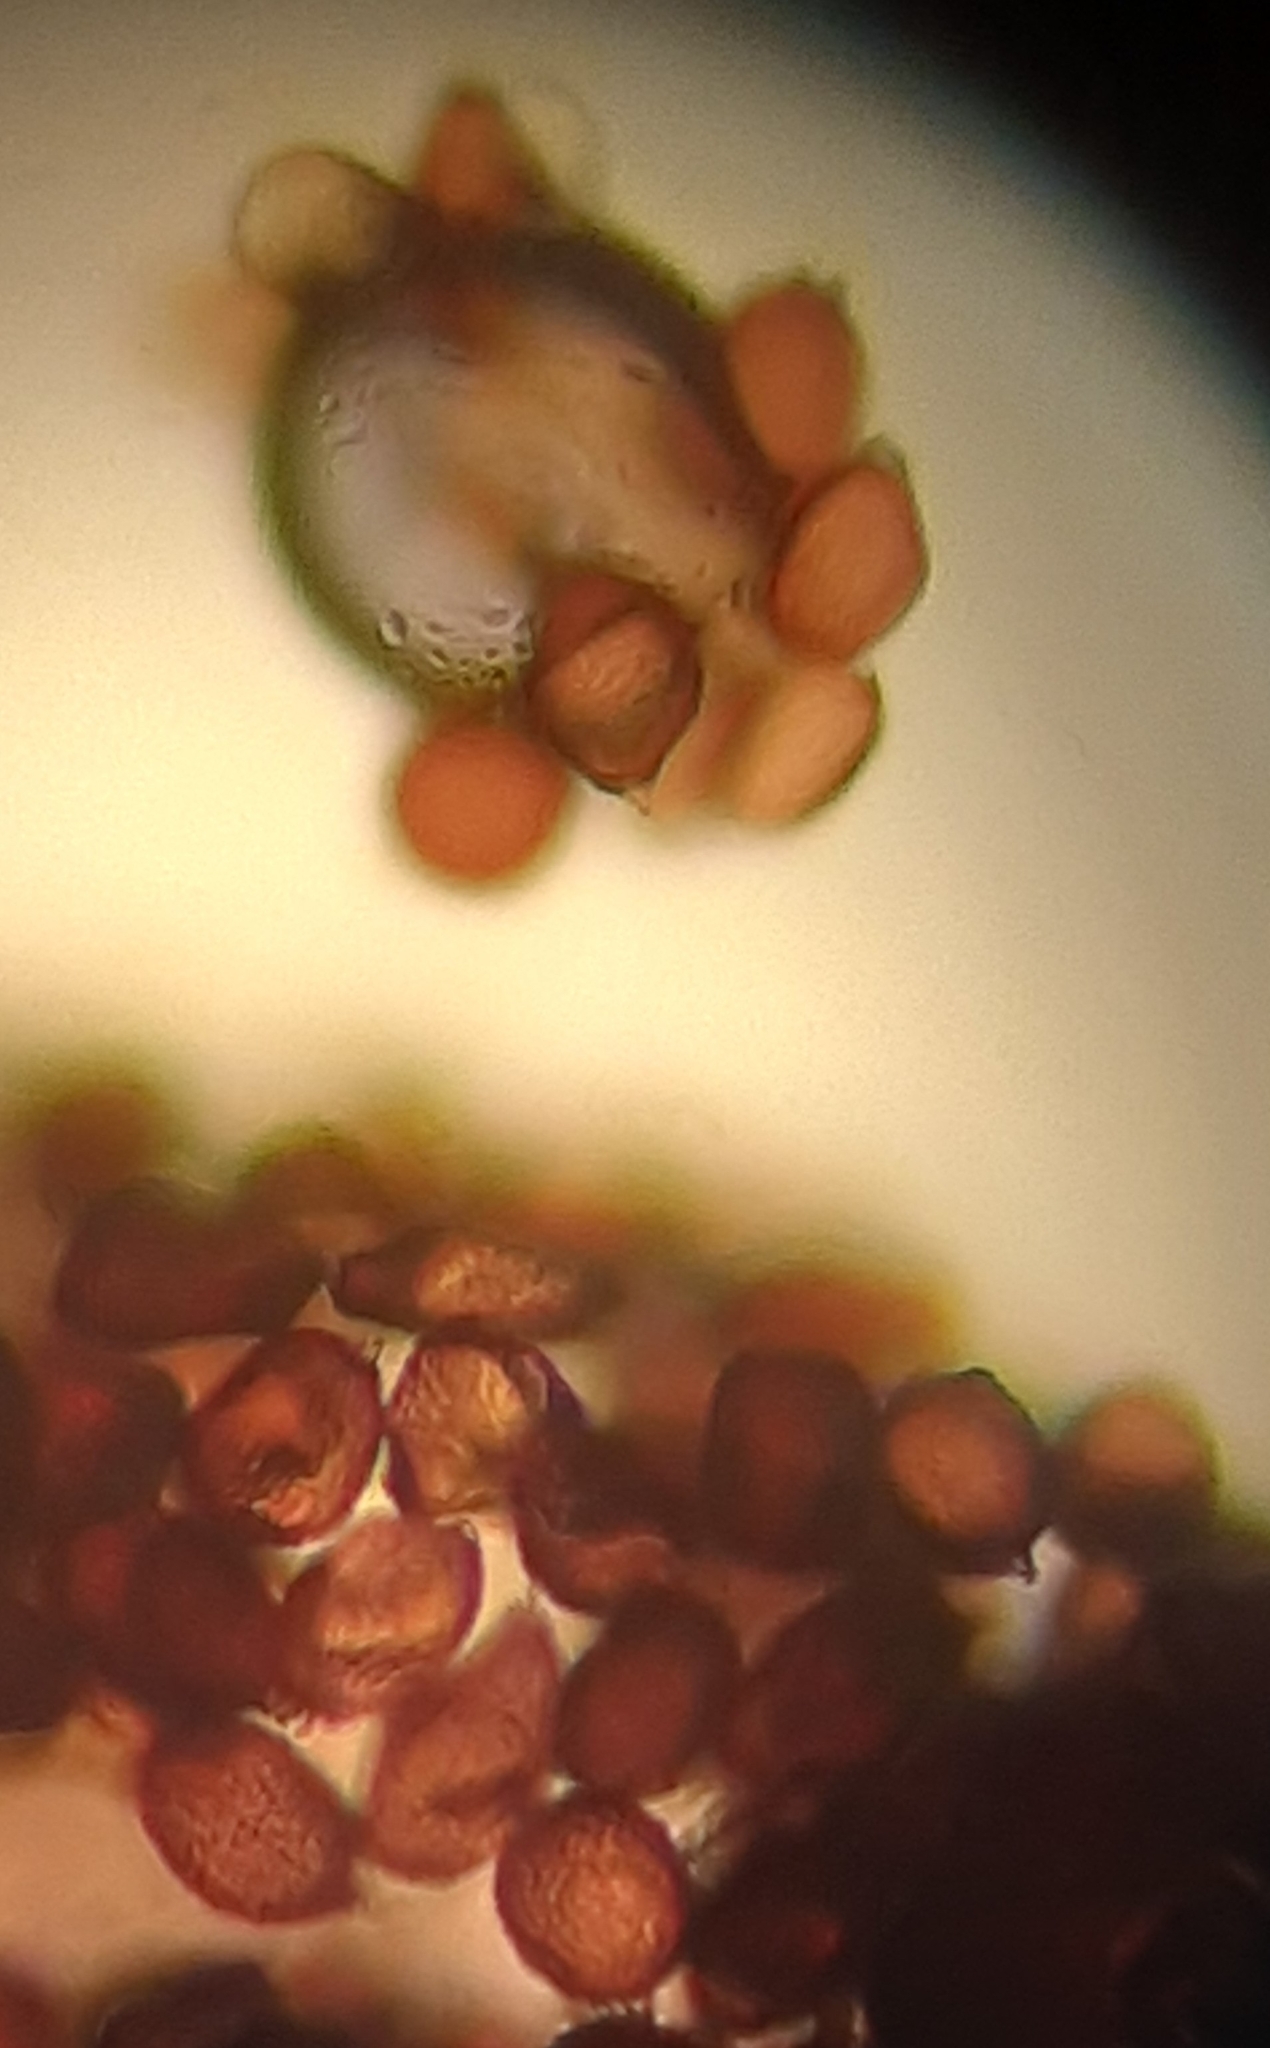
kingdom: Fungi
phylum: Basidiomycota
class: Pucciniomycetes
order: Pucciniales
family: Pucciniaceae
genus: Uromyces
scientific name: Uromyces acutatus
